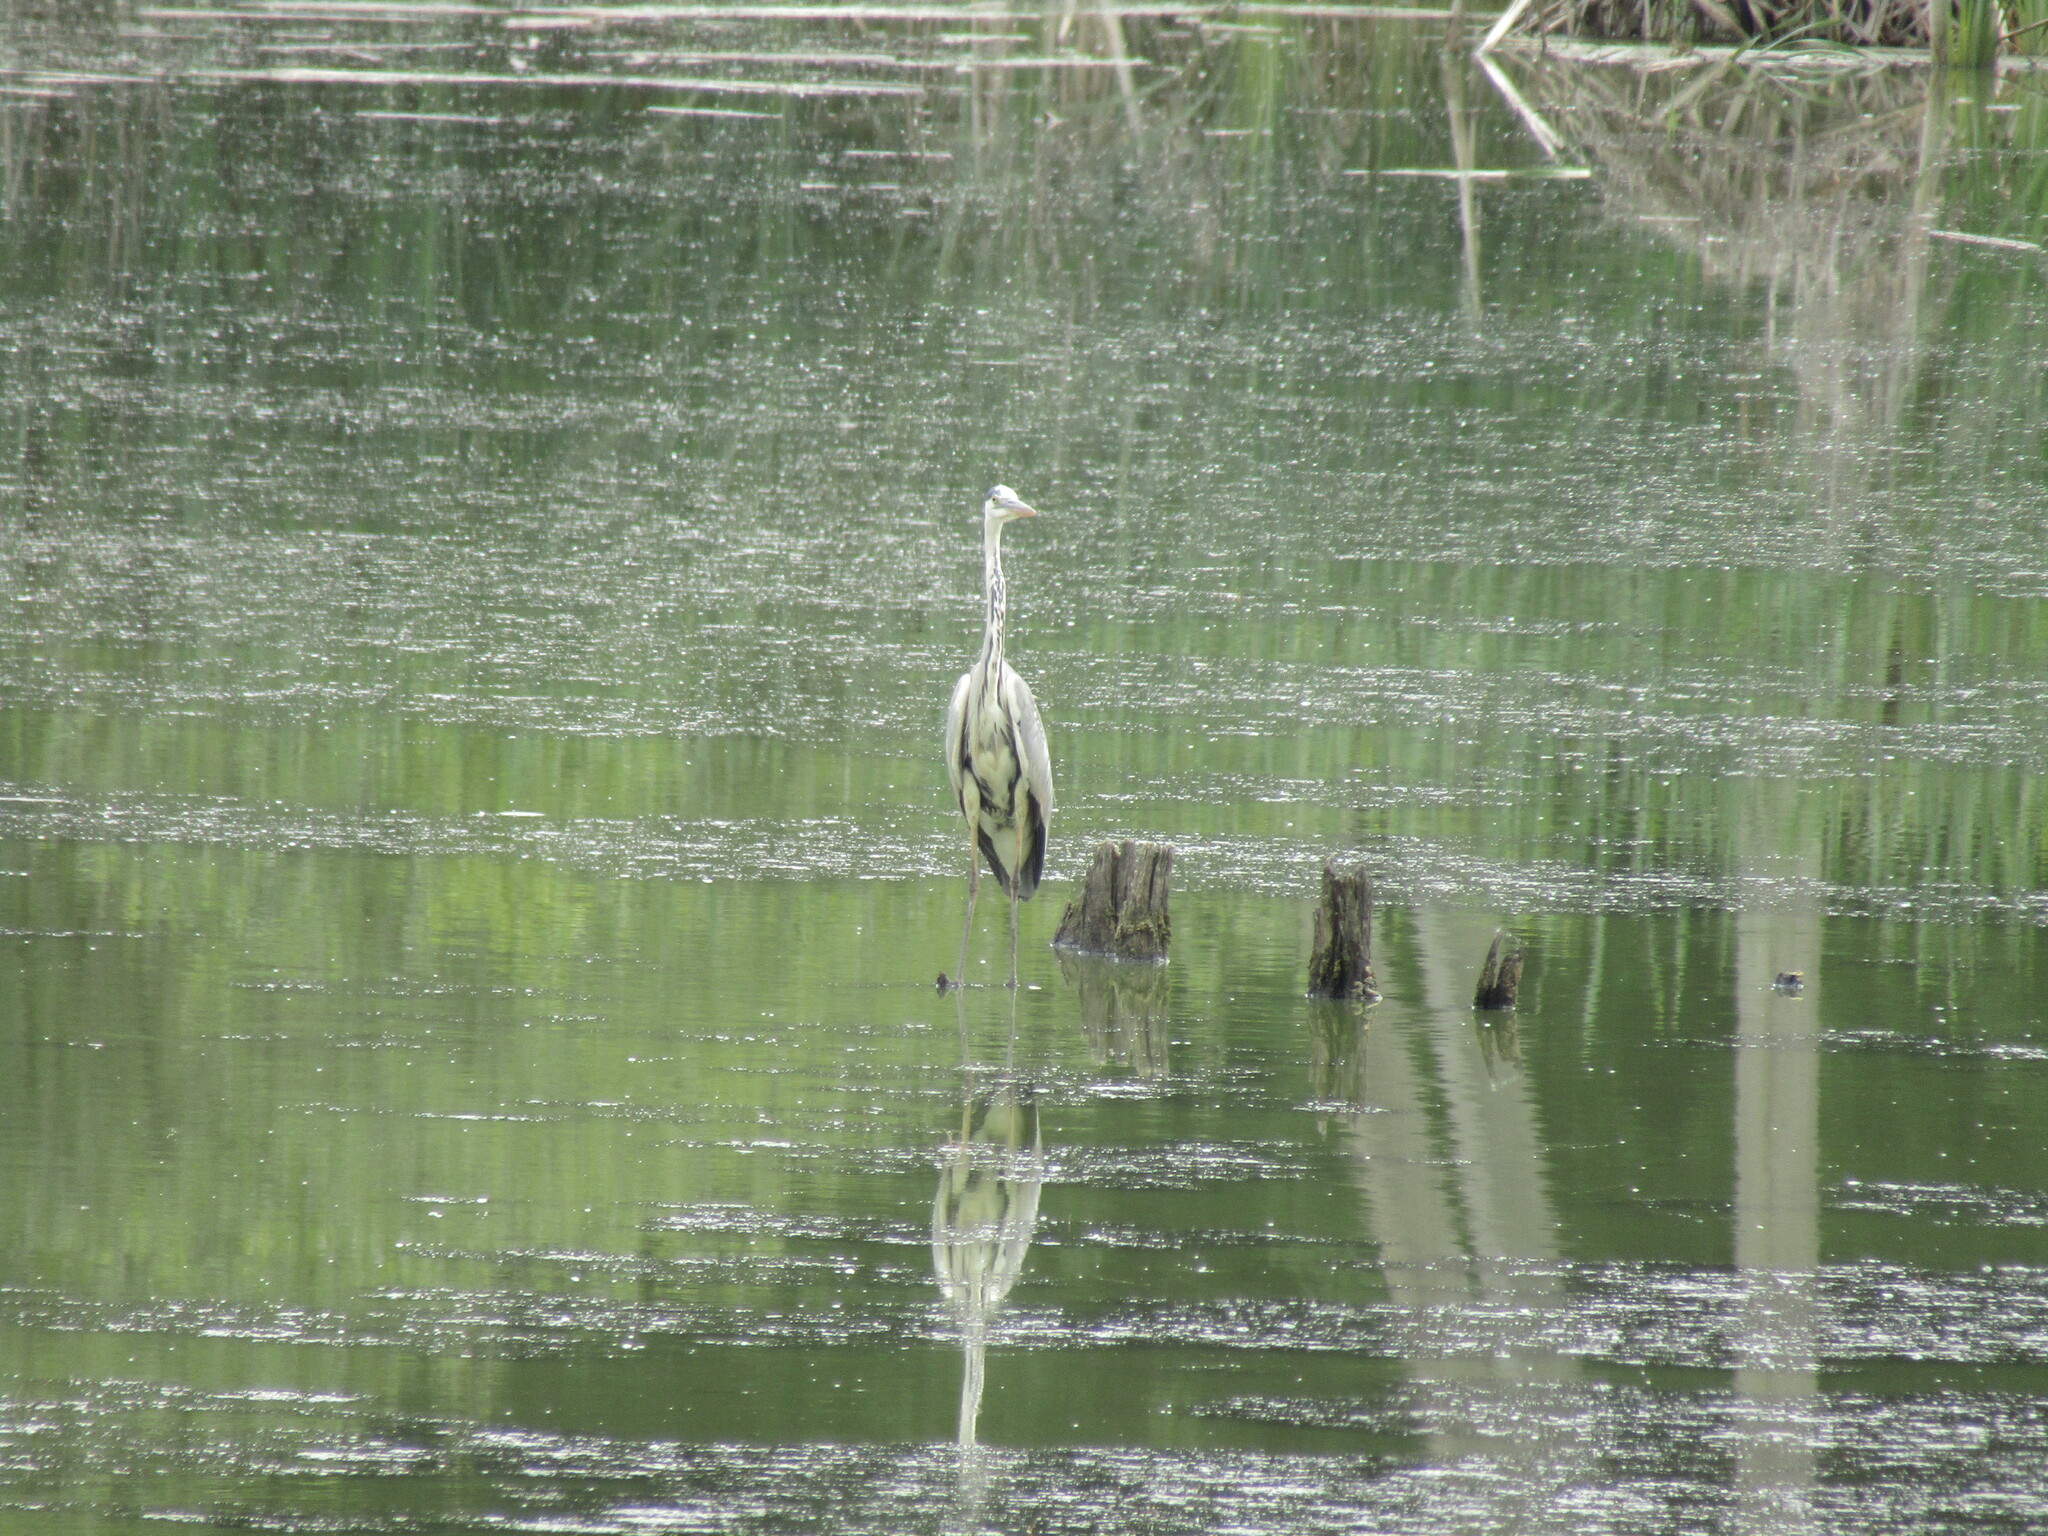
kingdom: Animalia
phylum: Chordata
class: Aves
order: Pelecaniformes
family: Ardeidae
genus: Ardea
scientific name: Ardea cinerea
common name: Grey heron
